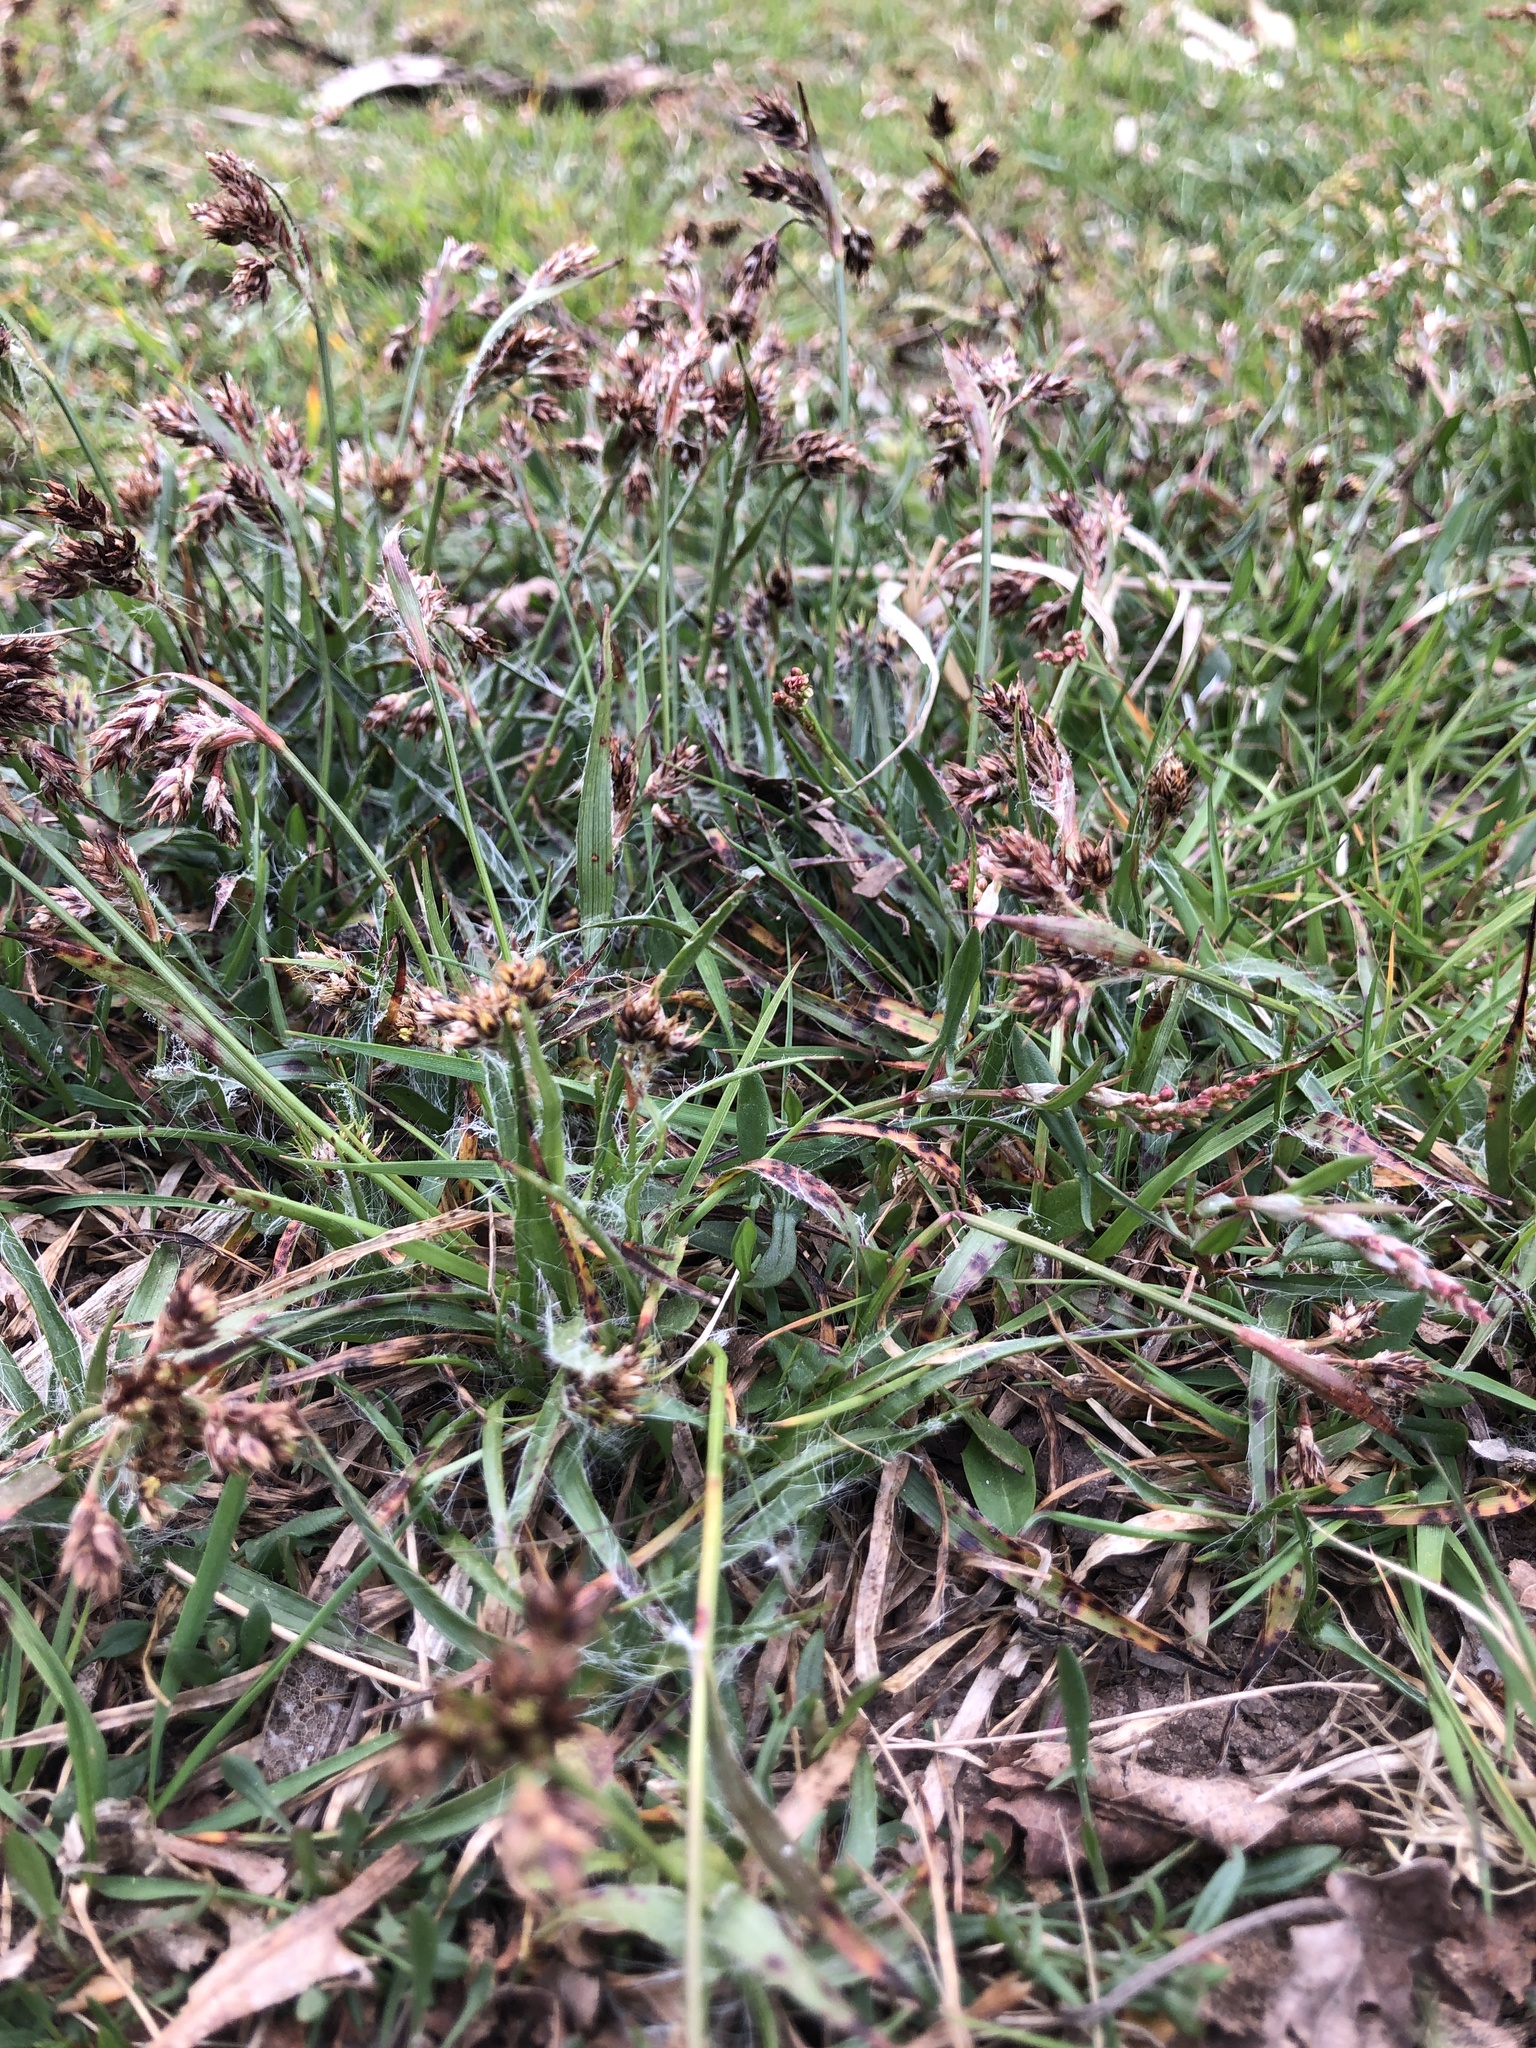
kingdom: Plantae
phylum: Tracheophyta
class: Liliopsida
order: Poales
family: Juncaceae
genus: Luzula
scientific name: Luzula campestris
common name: Field wood-rush
